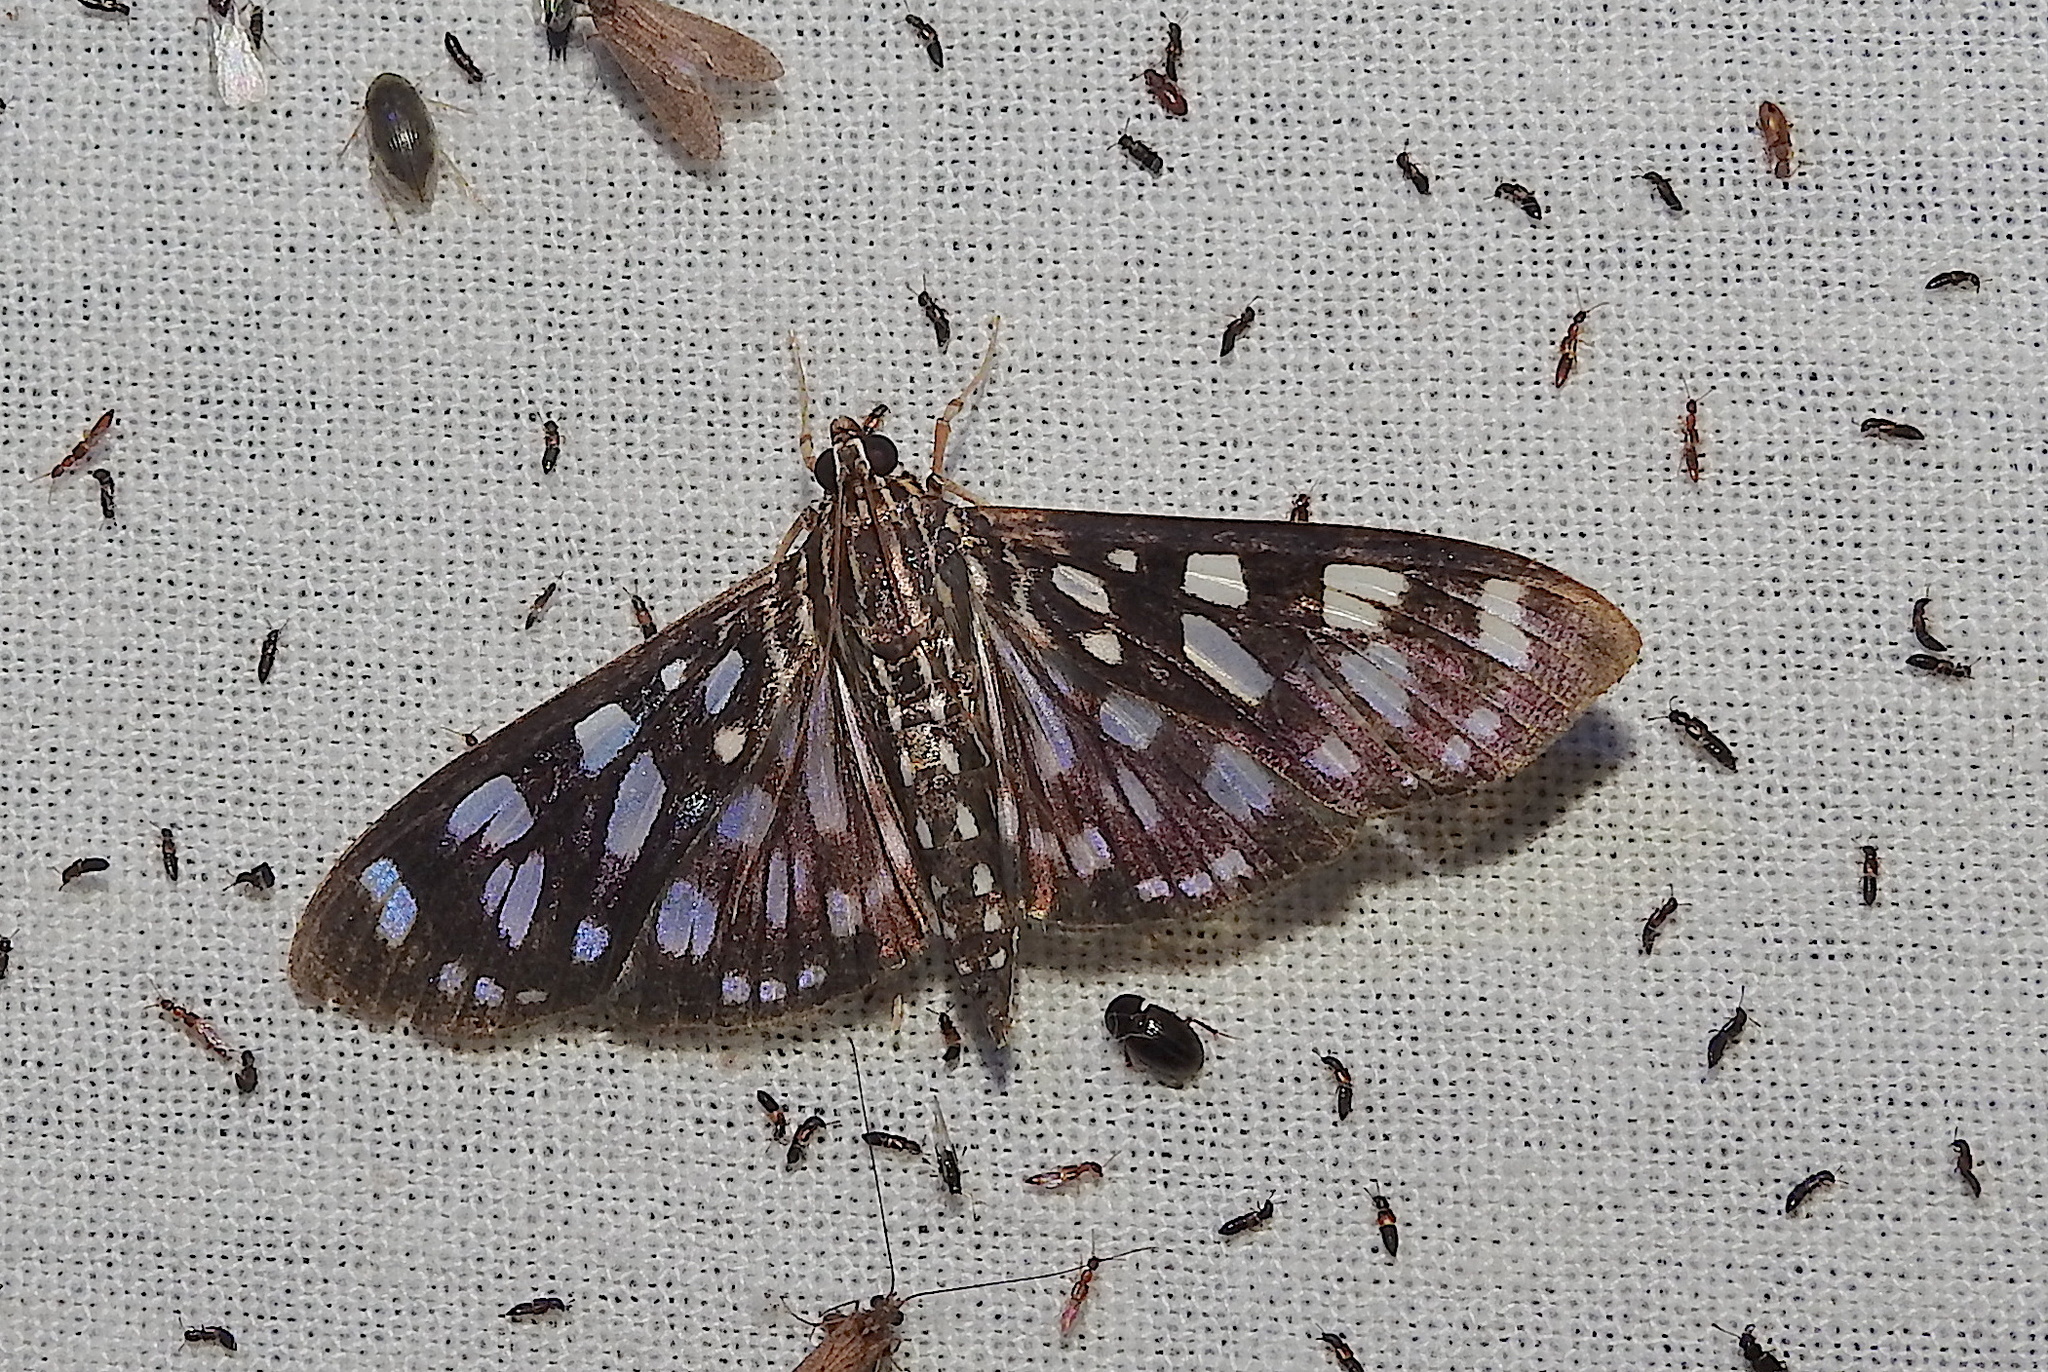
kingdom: Animalia
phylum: Arthropoda
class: Insecta
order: Lepidoptera
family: Crambidae
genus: Pygospila
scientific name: Pygospila tyres
